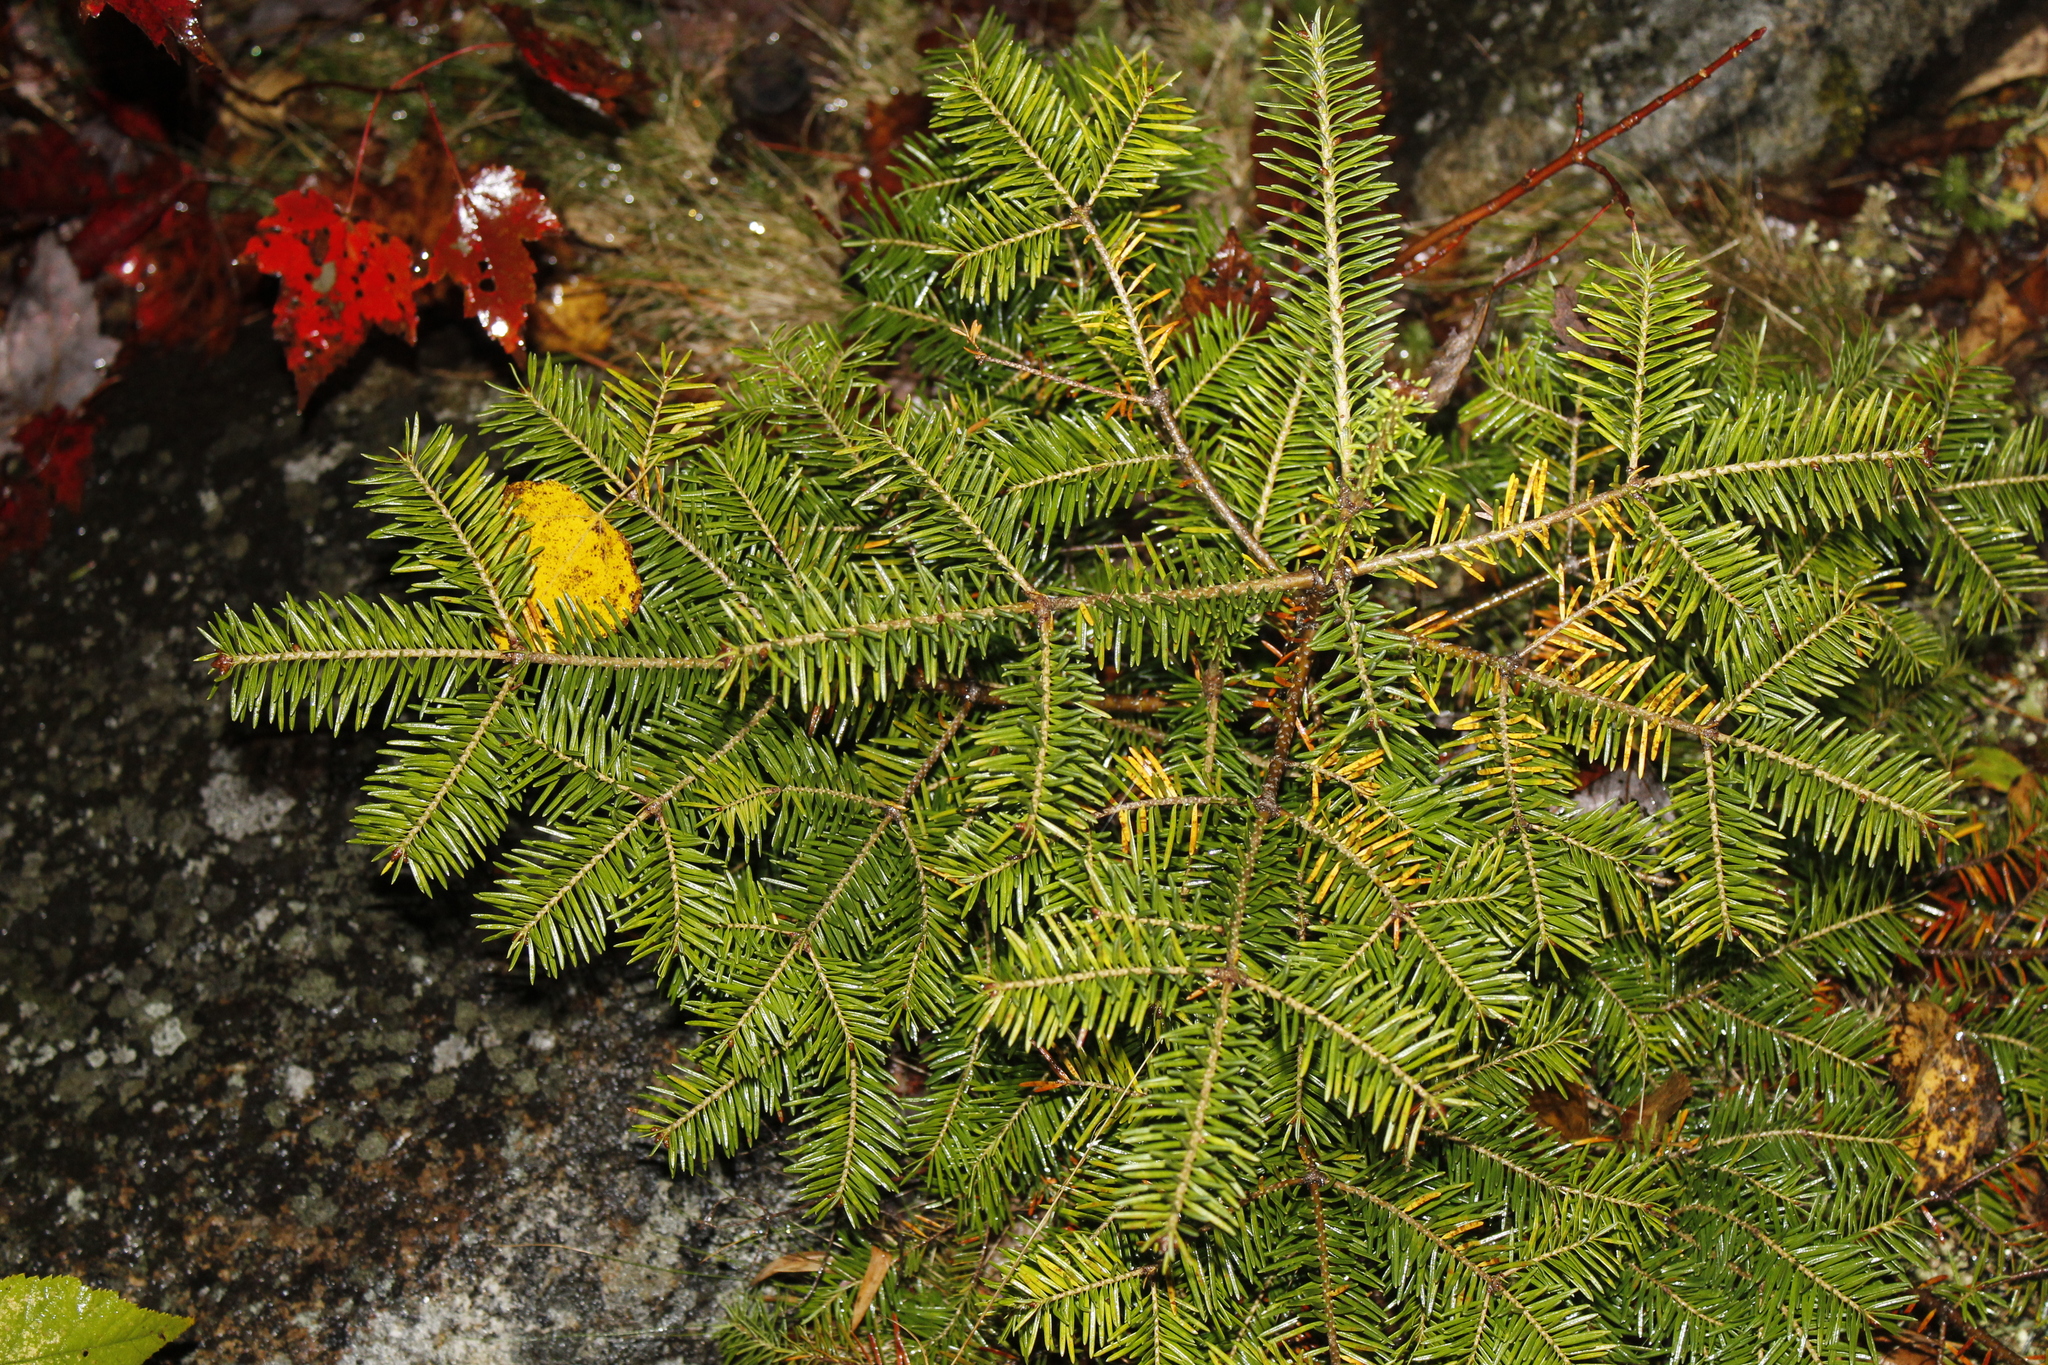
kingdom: Plantae
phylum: Tracheophyta
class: Pinopsida
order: Pinales
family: Pinaceae
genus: Abies
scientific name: Abies balsamea
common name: Balsam fir
